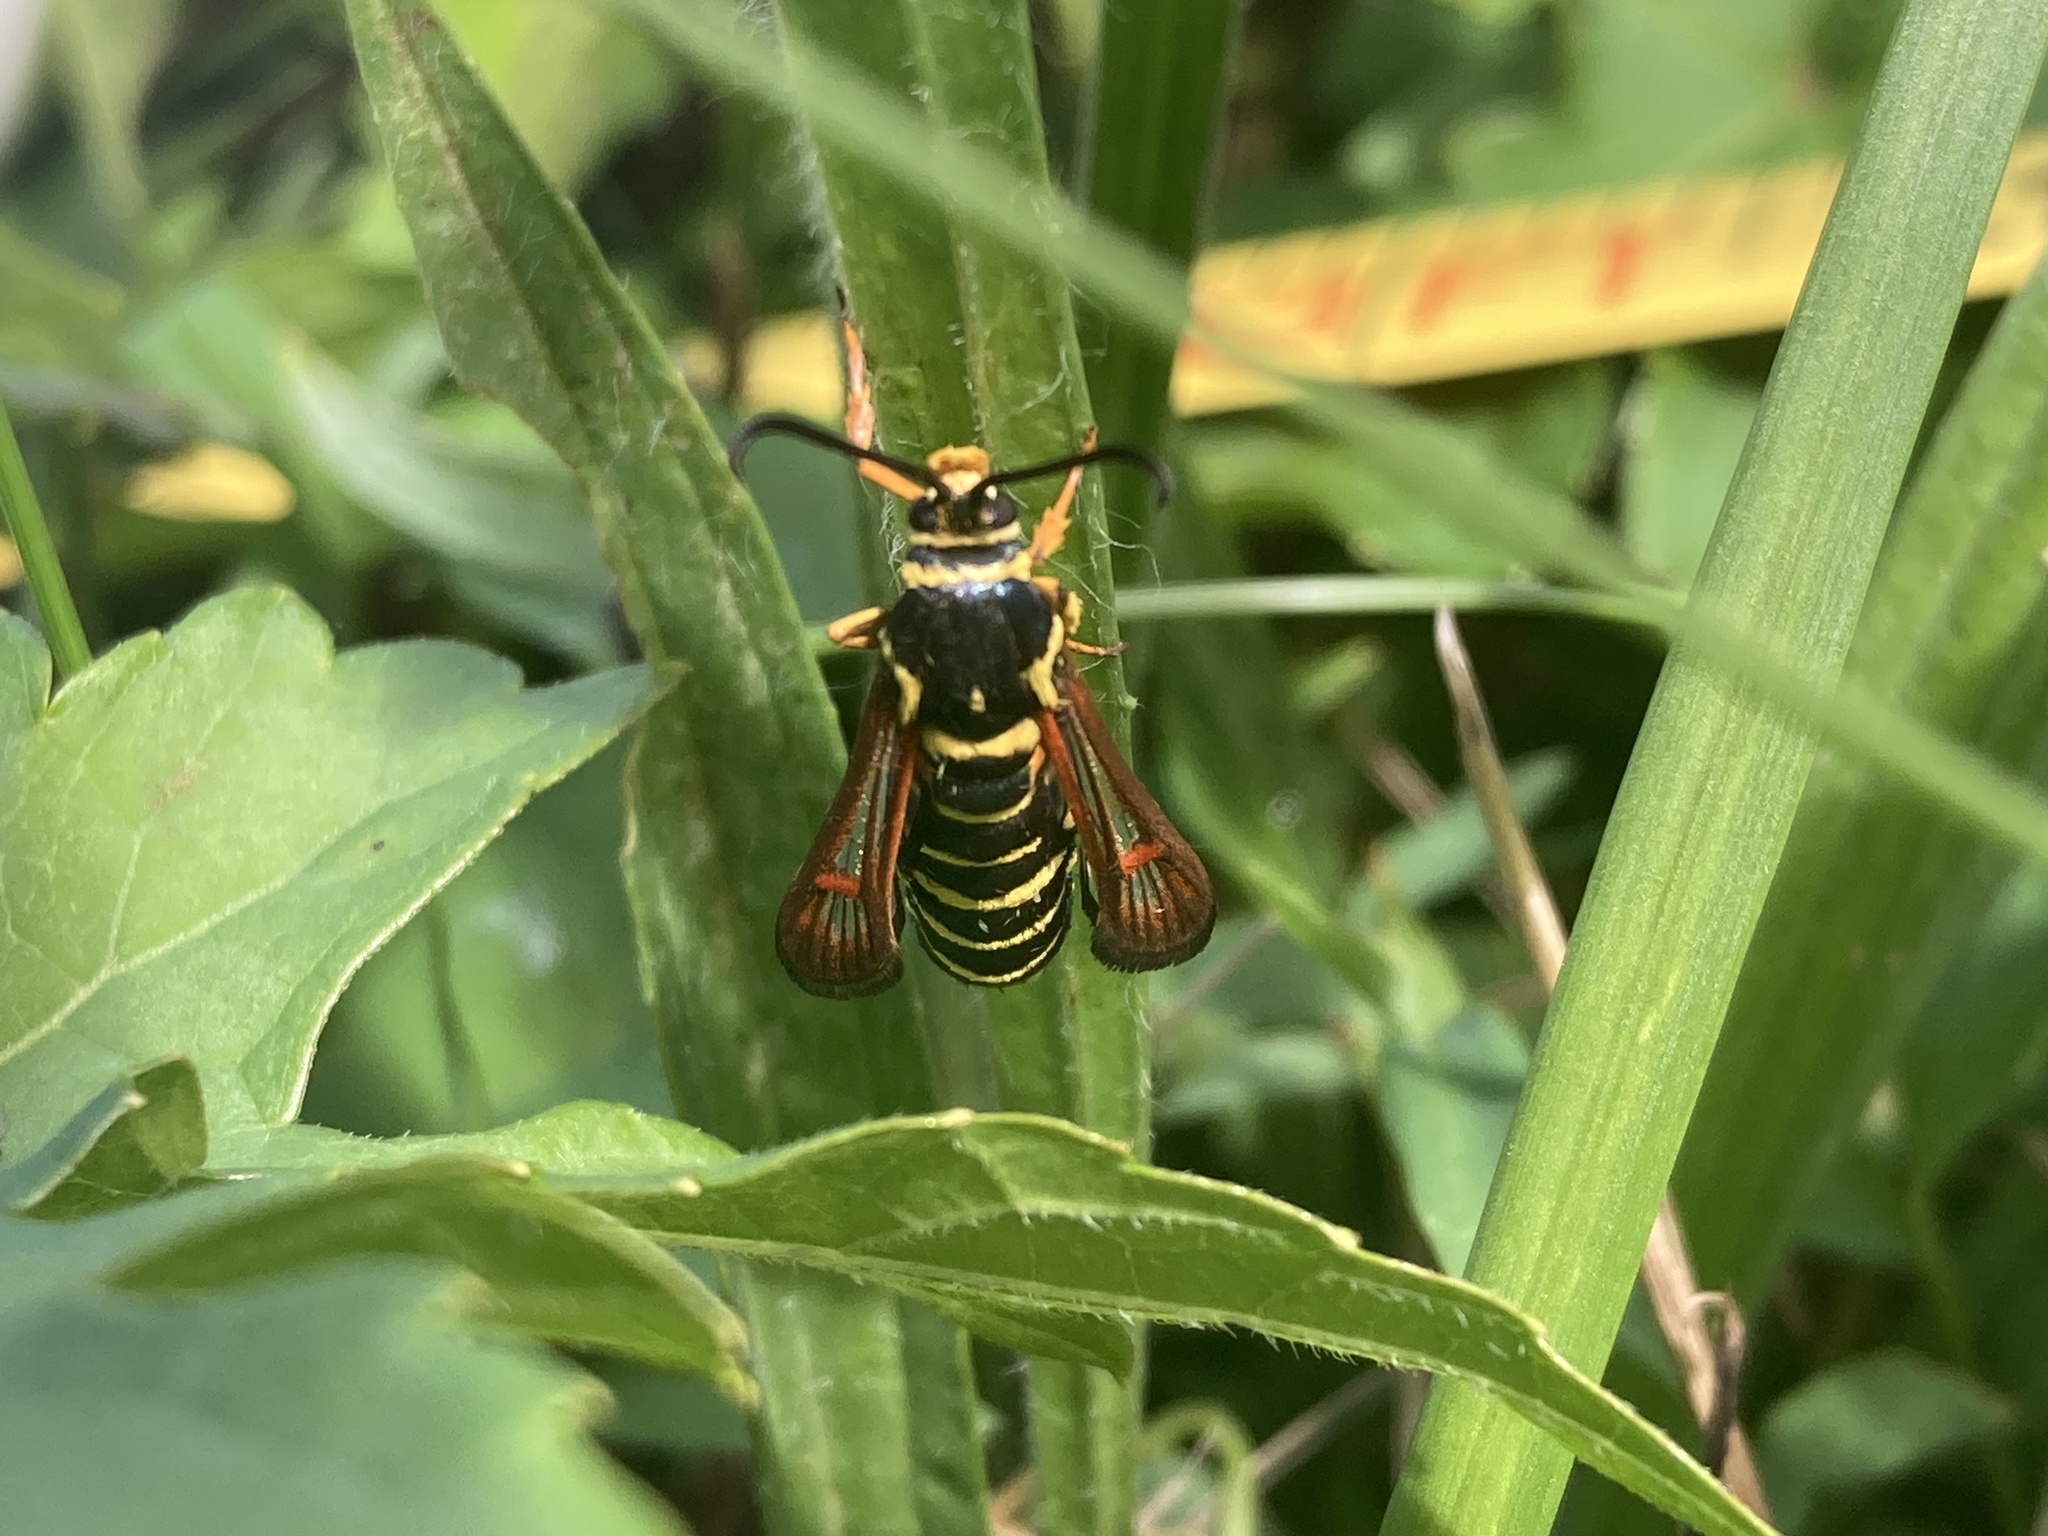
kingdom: Animalia
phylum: Arthropoda
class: Insecta
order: Lepidoptera
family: Sesiidae
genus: Synanthedon
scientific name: Synanthedon rileyana
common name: Riley's clearwing moth
